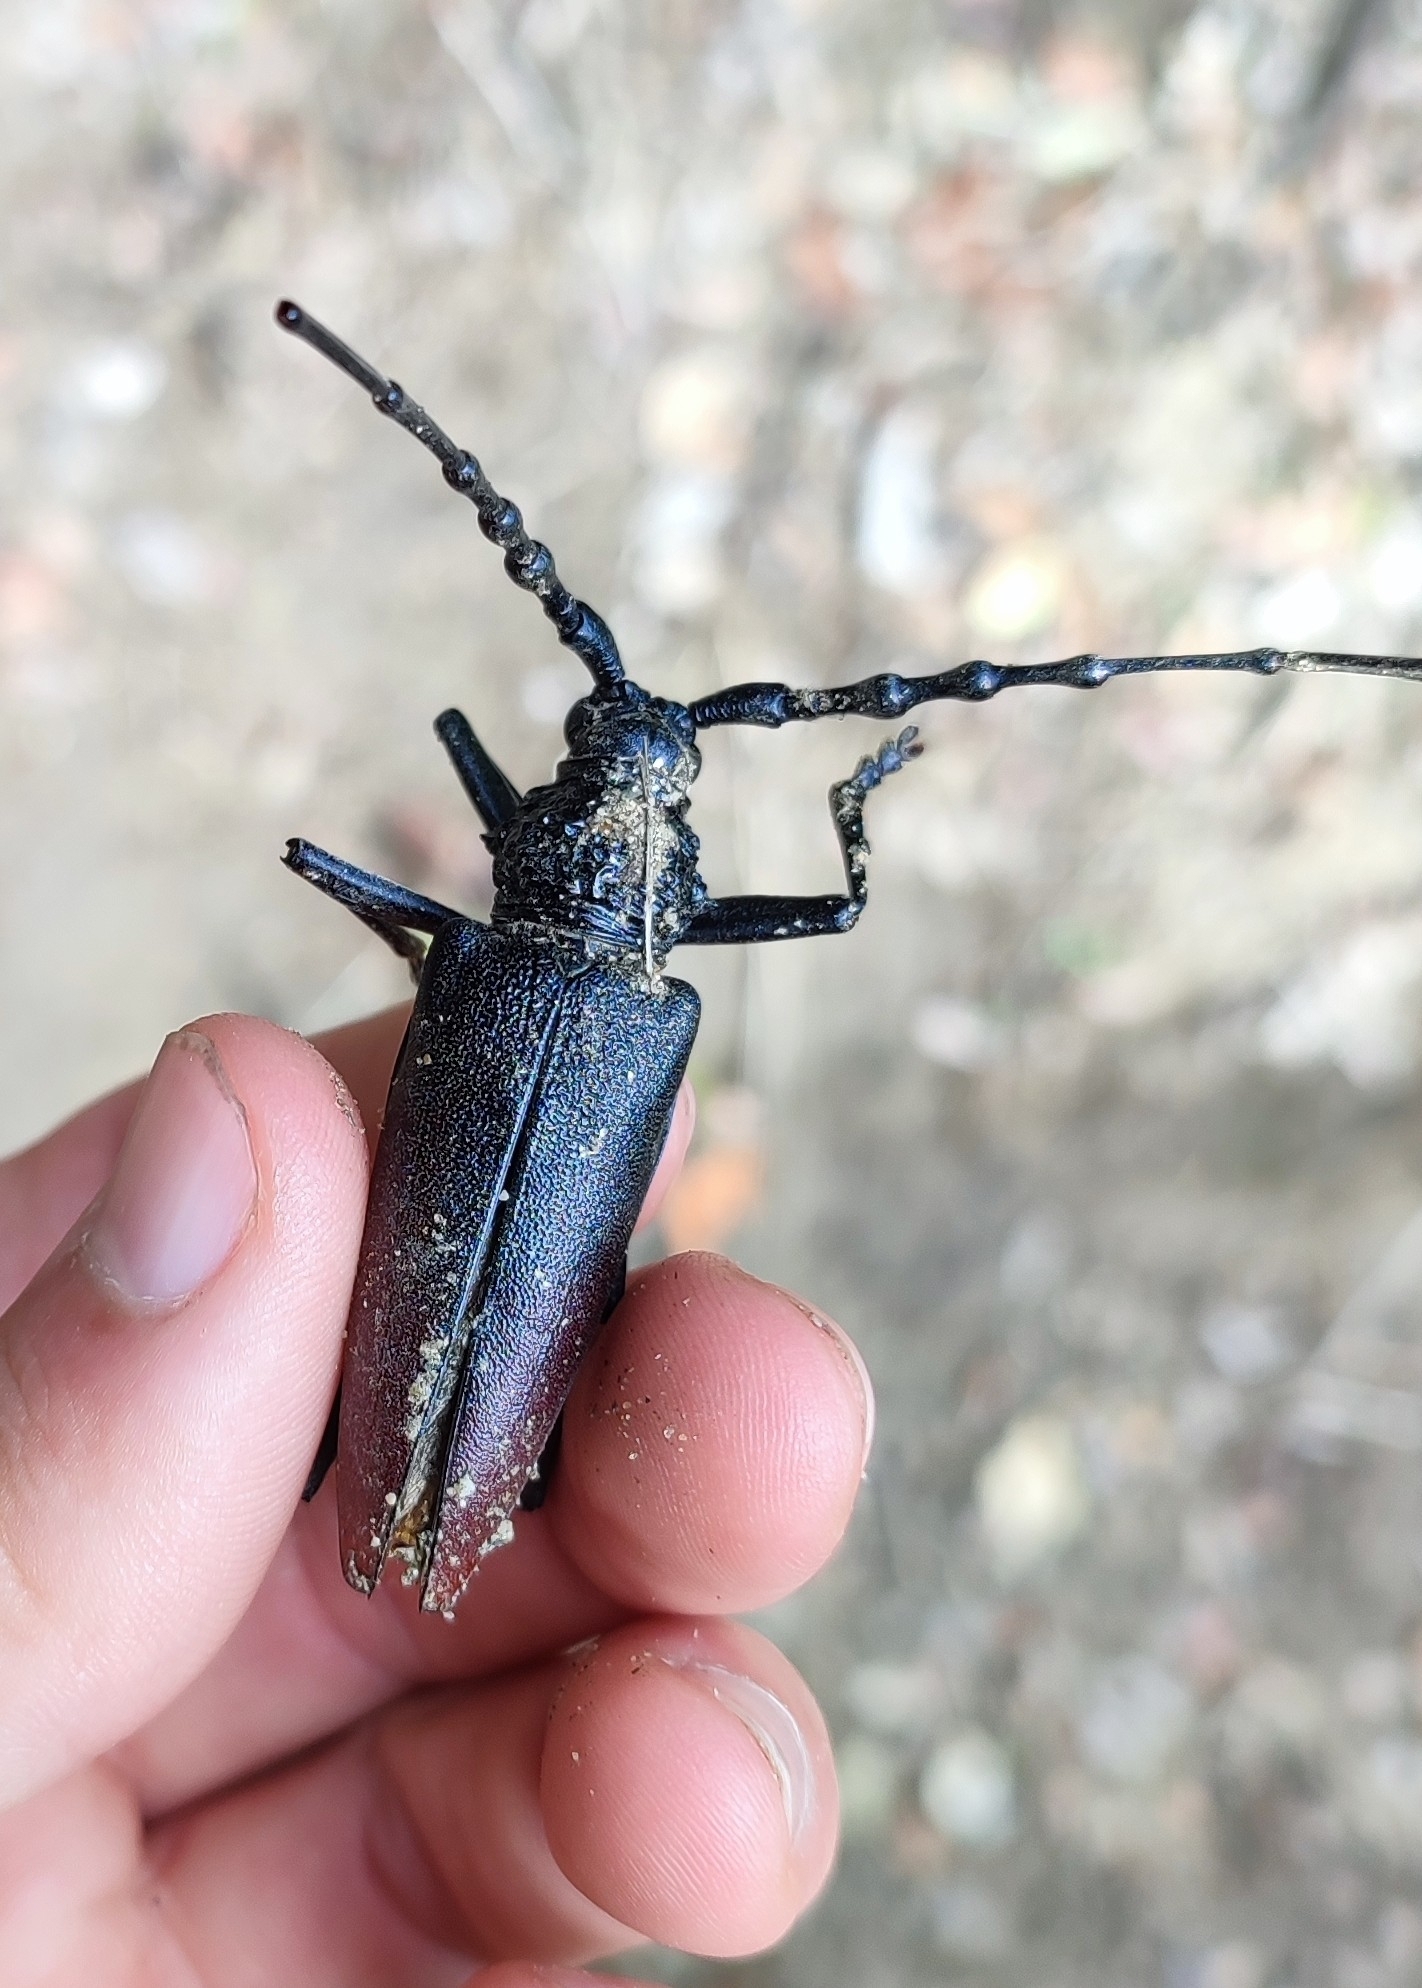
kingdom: Animalia
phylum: Arthropoda
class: Insecta
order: Coleoptera
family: Cerambycidae
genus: Cerambyx
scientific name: Cerambyx cerdo
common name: Cerambyx longicorn
